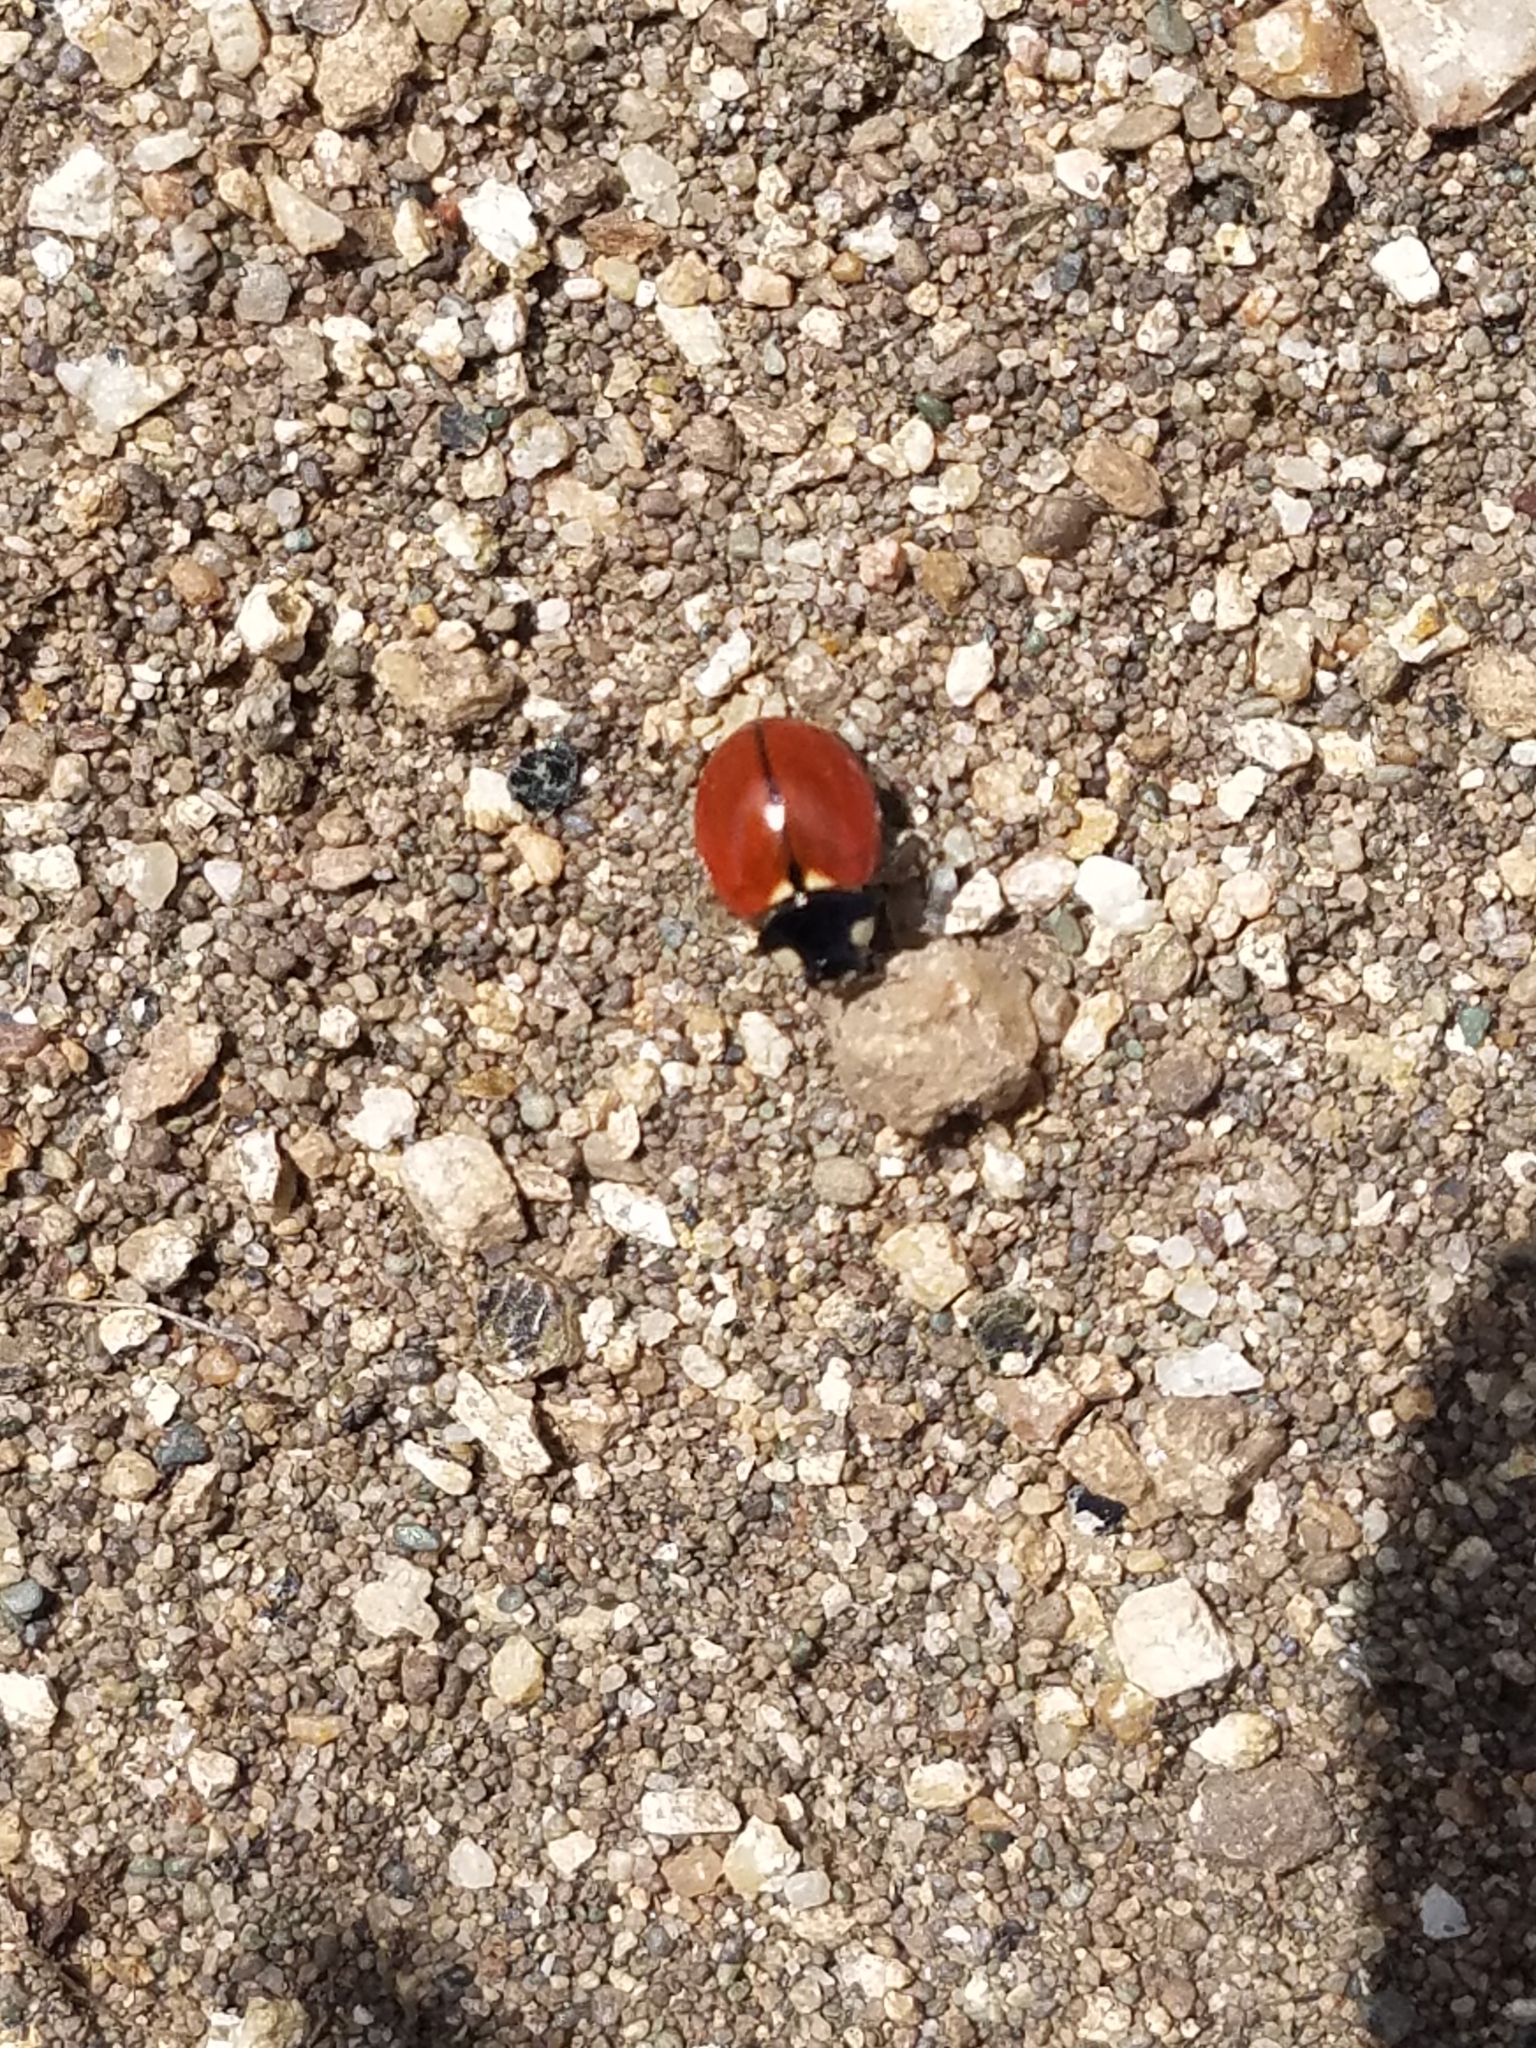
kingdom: Animalia
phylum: Arthropoda
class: Insecta
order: Coleoptera
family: Coccinellidae
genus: Coccinella
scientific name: Coccinella californica
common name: Lady beetle
